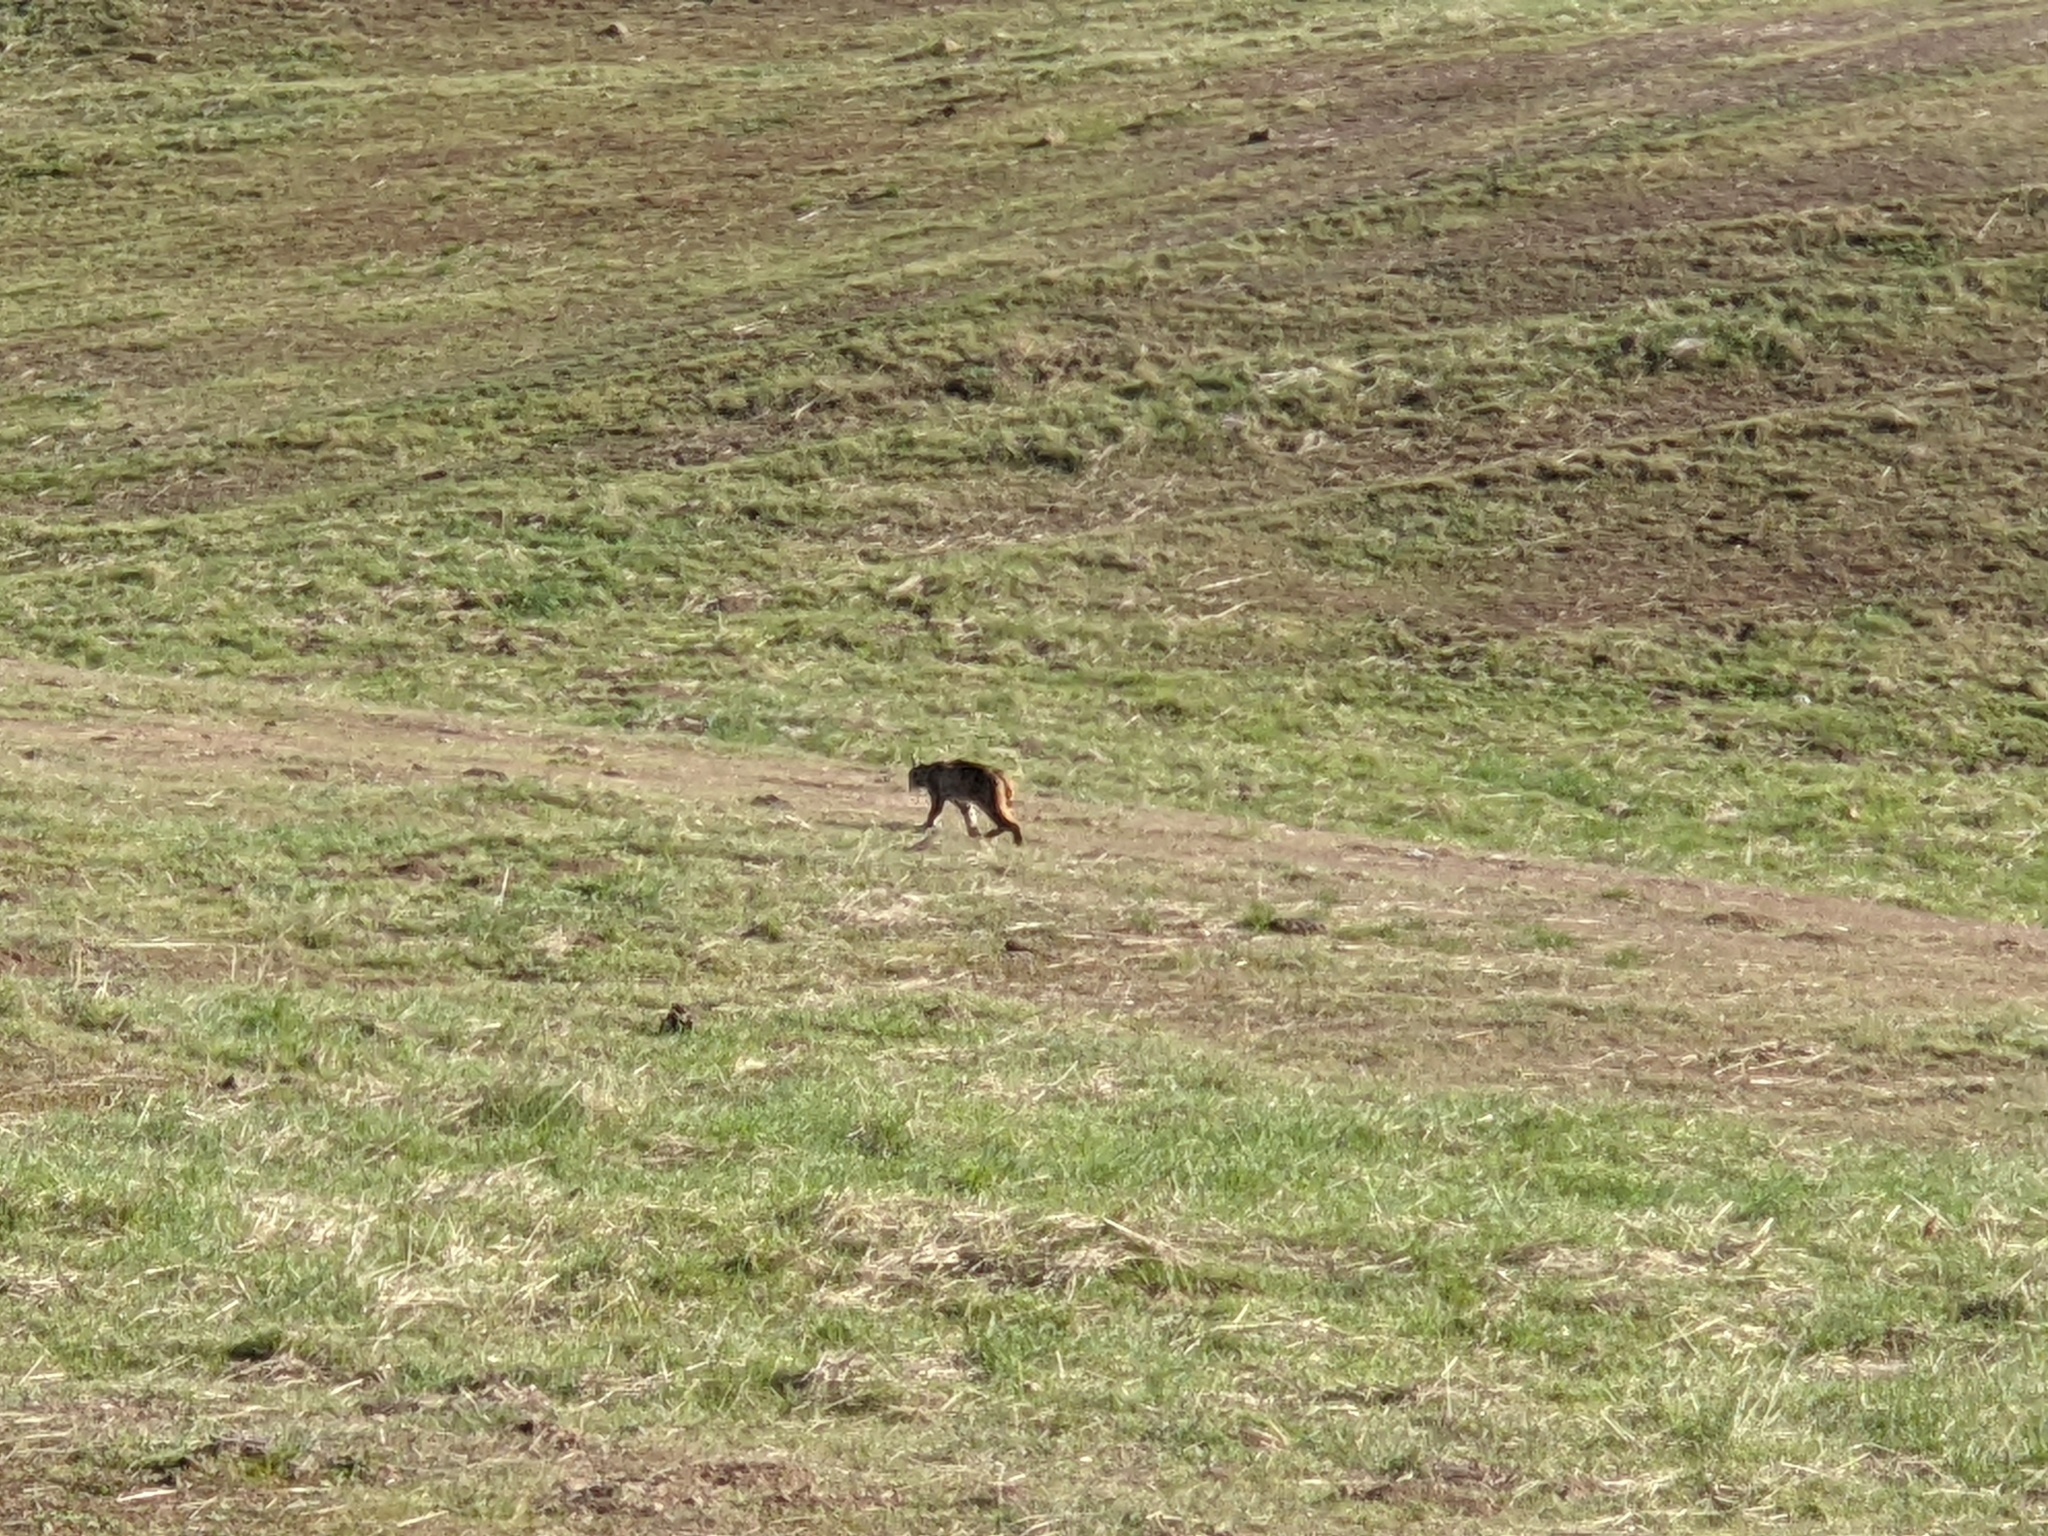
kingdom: Animalia
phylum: Chordata
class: Mammalia
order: Carnivora
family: Felidae
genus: Lynx
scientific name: Lynx rufus
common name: Bobcat
